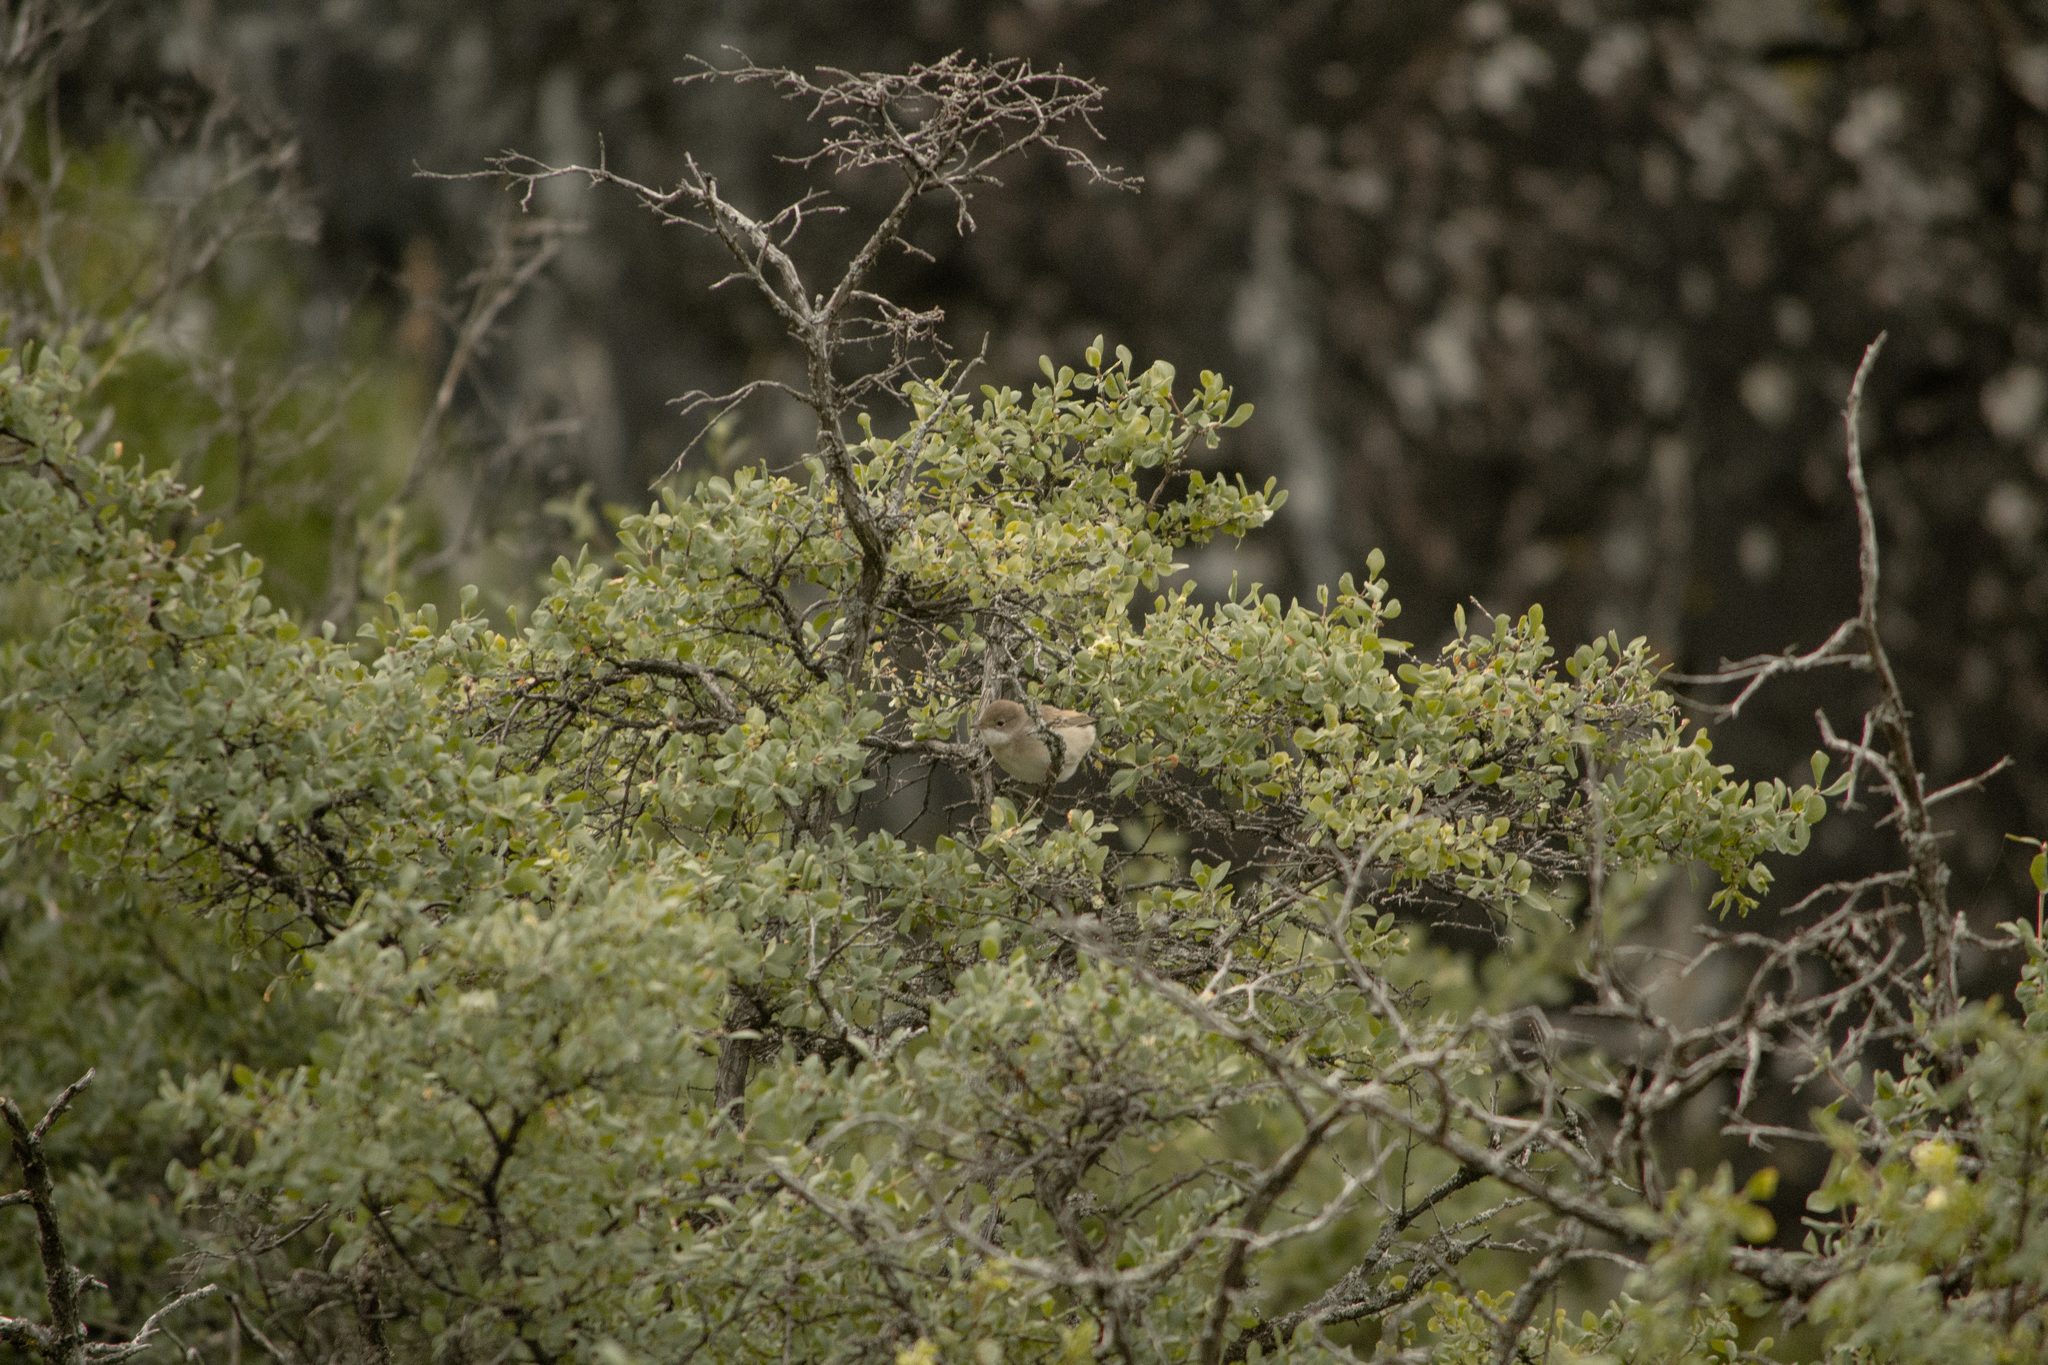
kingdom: Animalia
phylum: Chordata
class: Aves
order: Passeriformes
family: Sylviidae
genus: Sylvia
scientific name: Sylvia communis
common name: Common whitethroat
